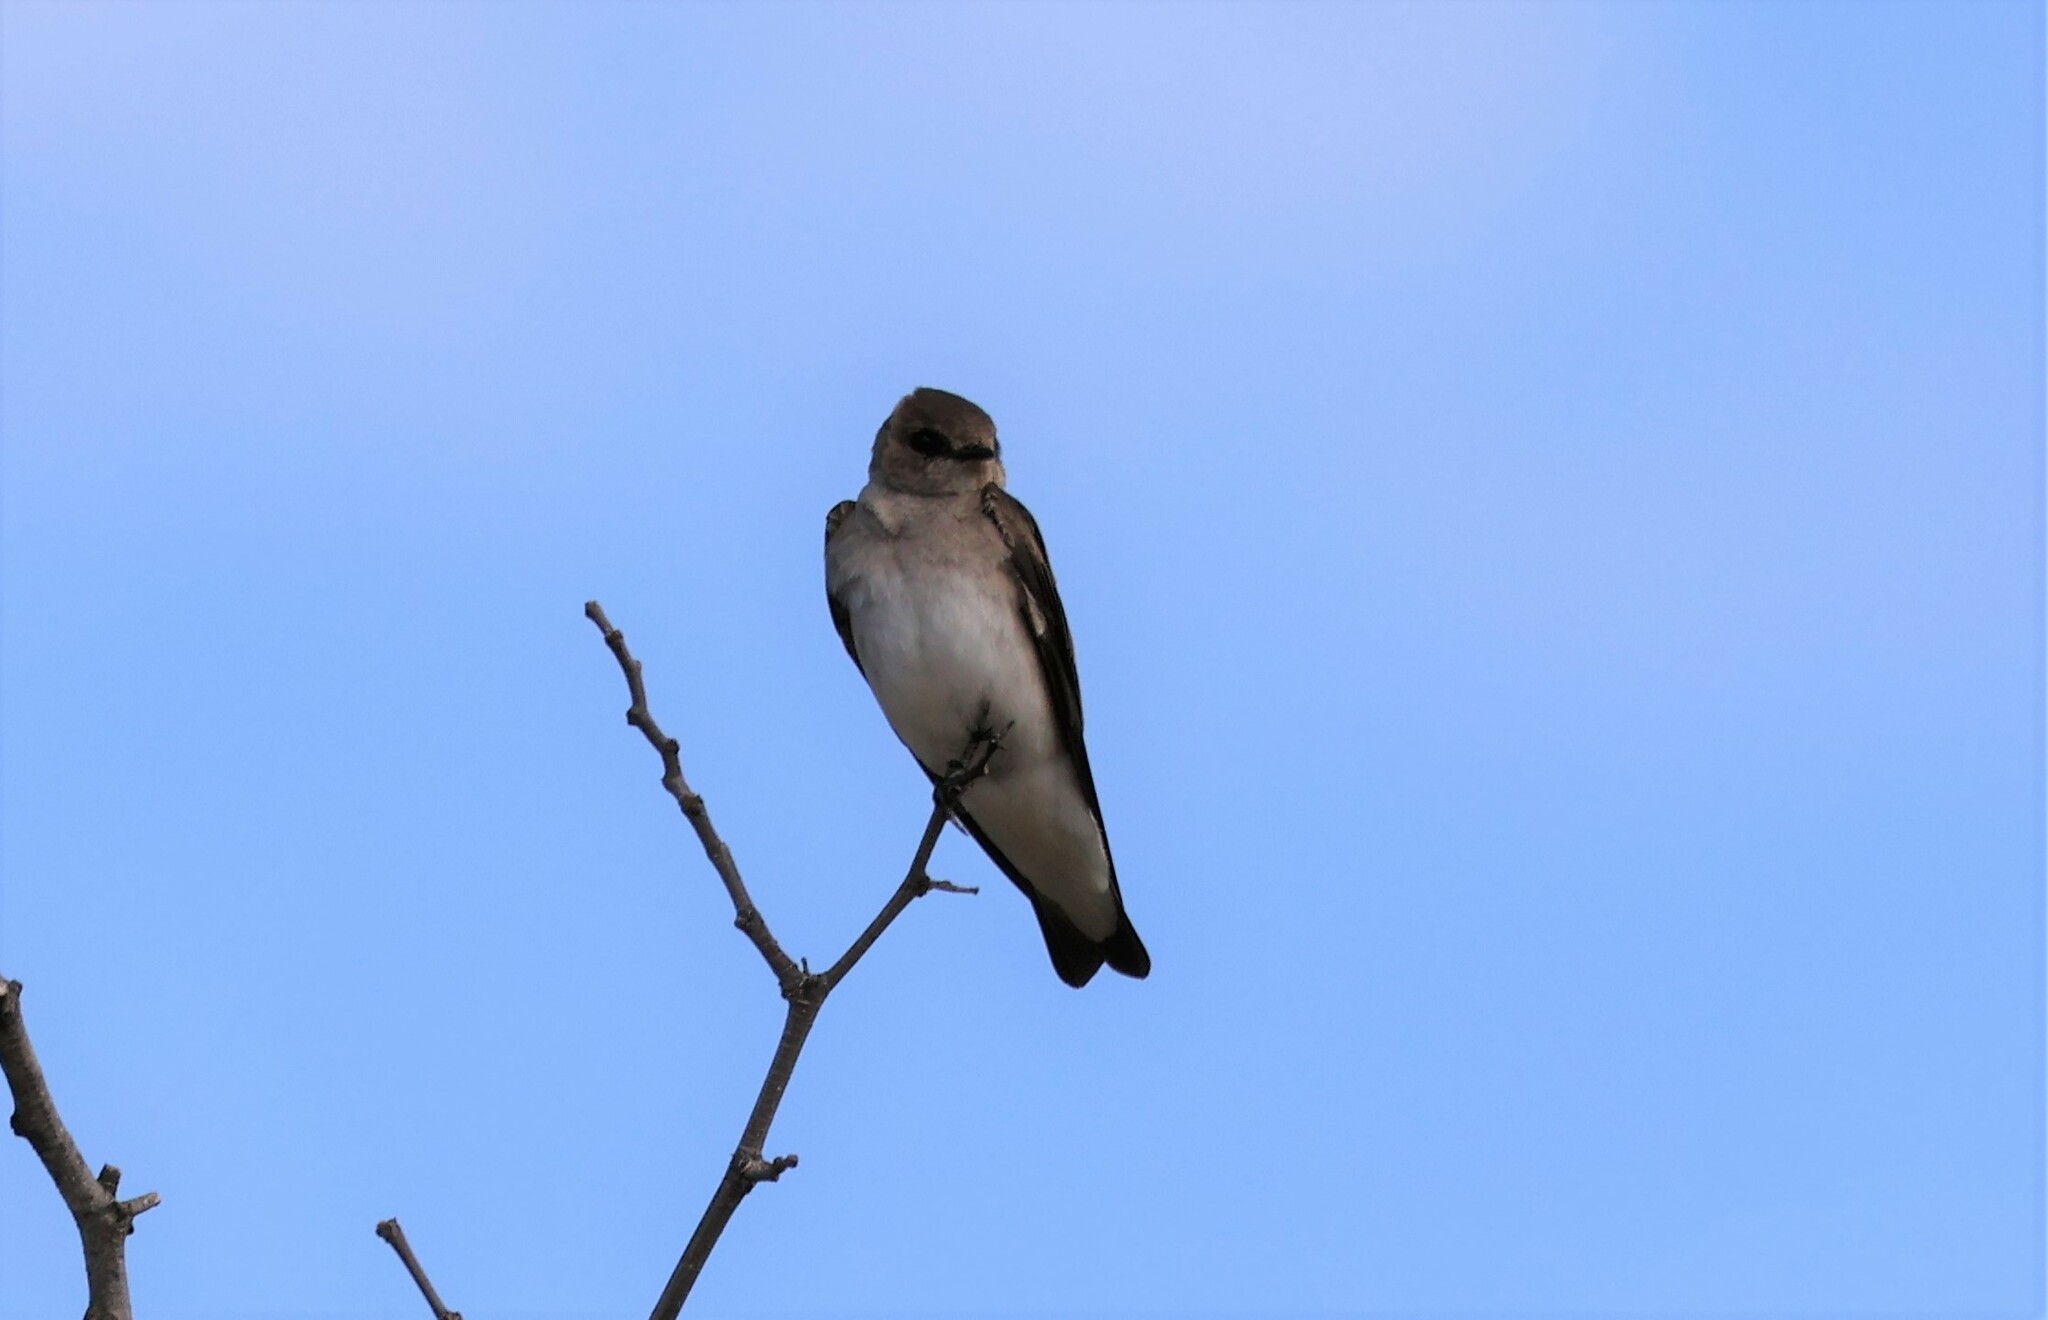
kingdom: Animalia
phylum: Chordata
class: Aves
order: Passeriformes
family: Hirundinidae
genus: Stelgidopteryx
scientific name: Stelgidopteryx serripennis
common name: Northern rough-winged swallow
